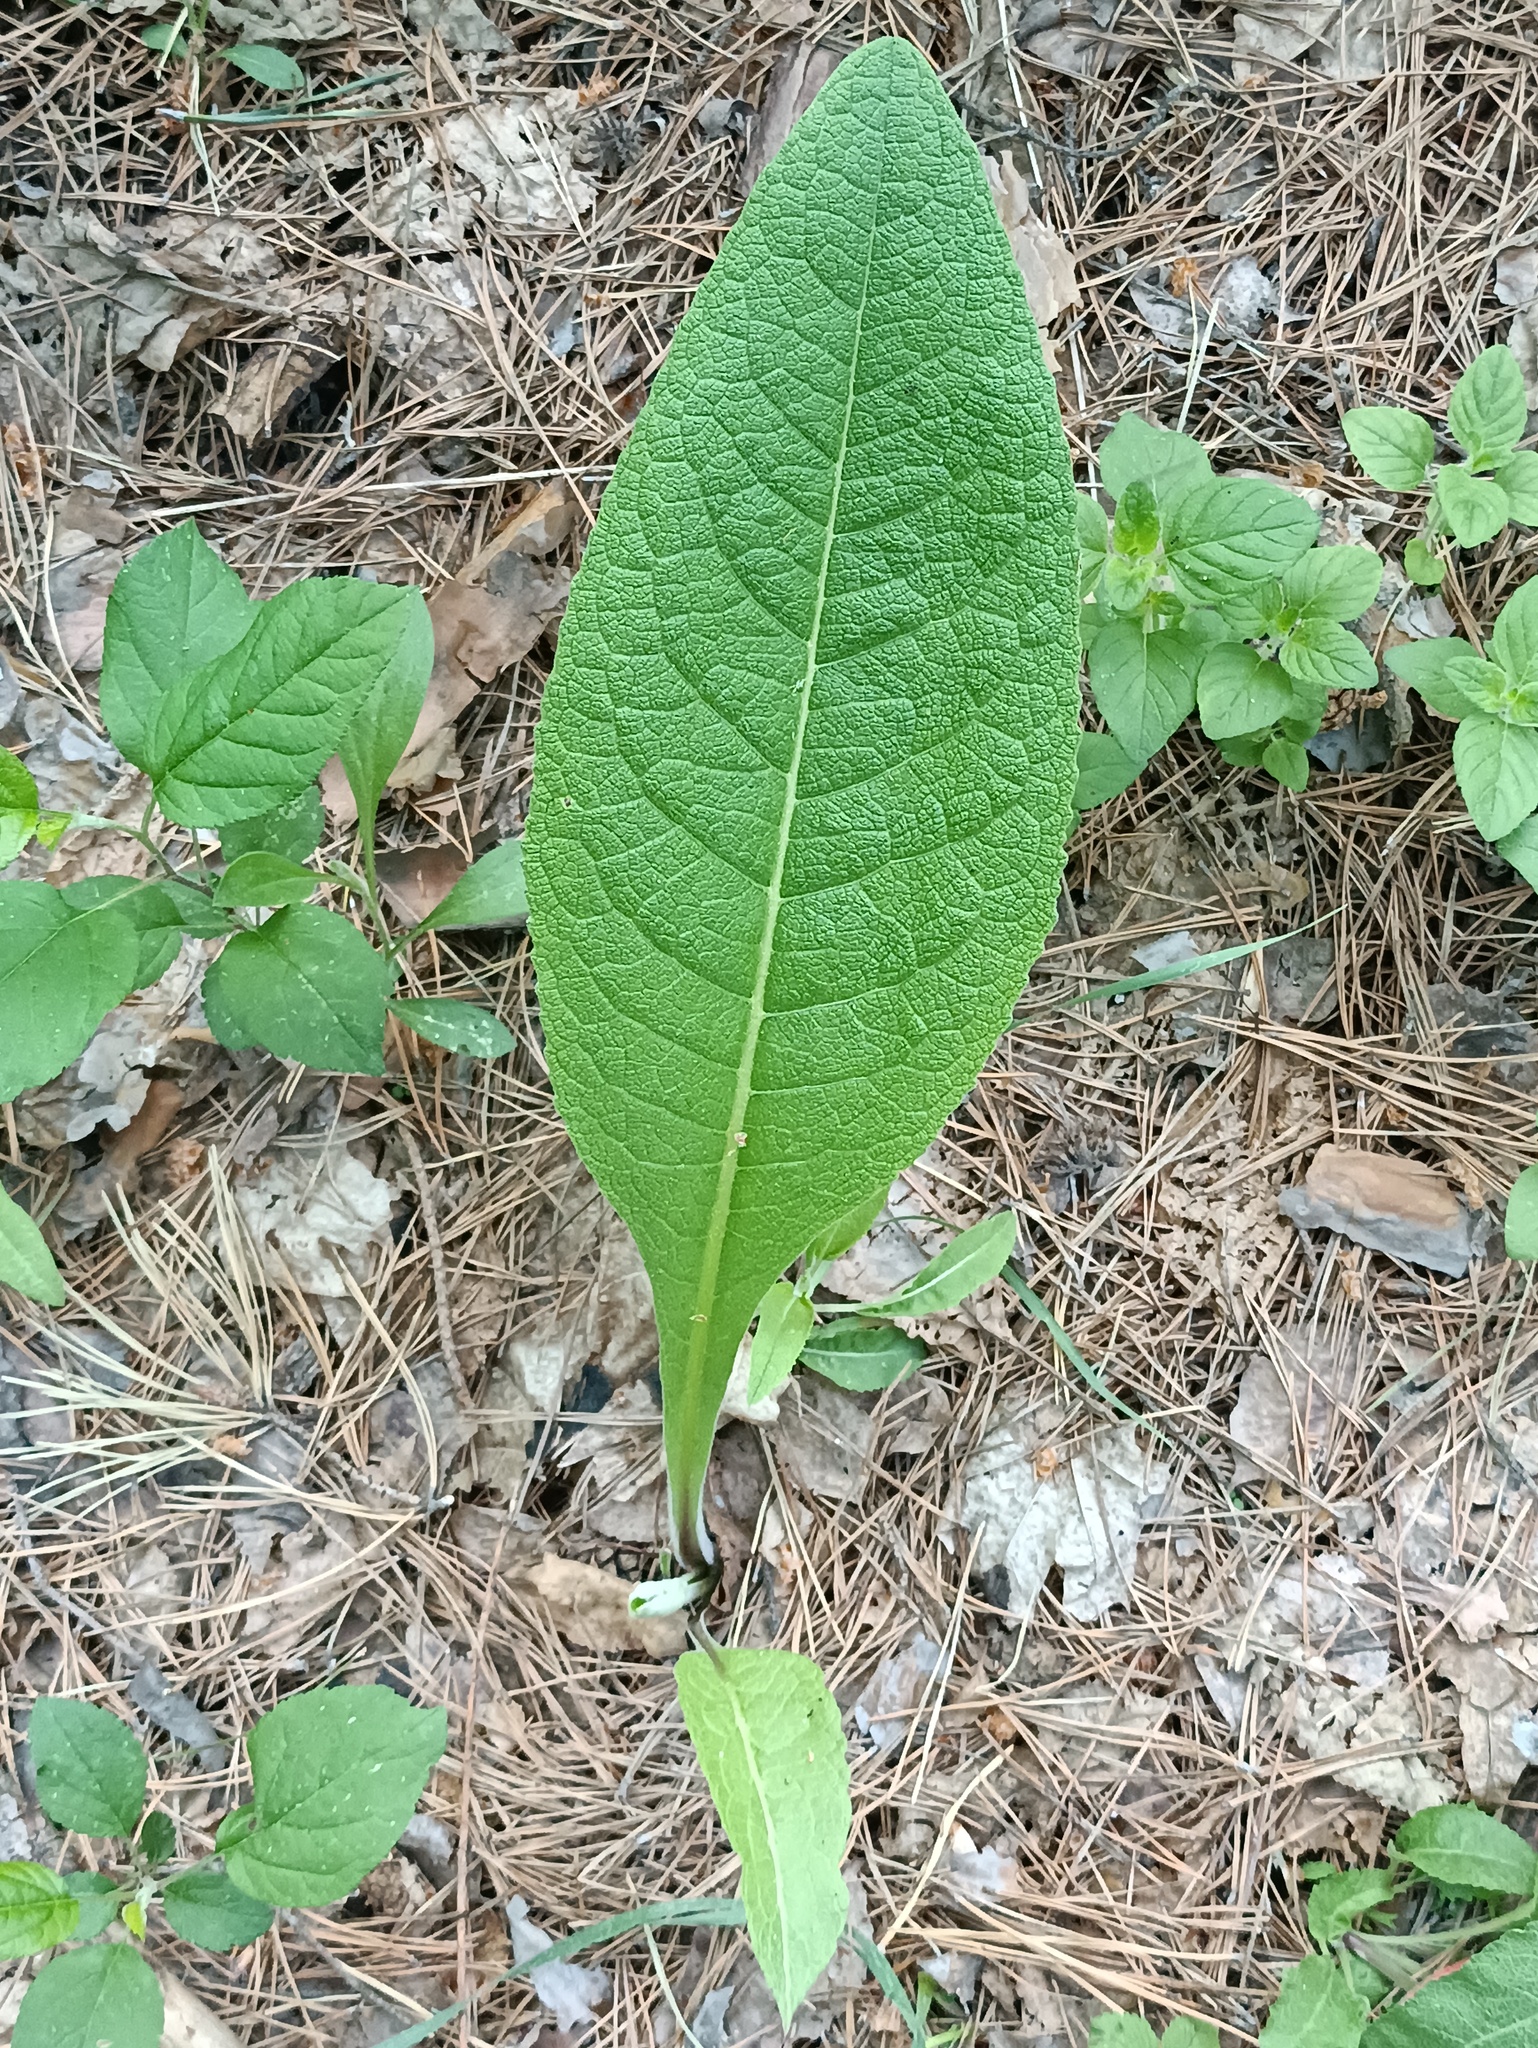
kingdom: Plantae
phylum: Tracheophyta
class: Magnoliopsida
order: Asterales
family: Asteraceae
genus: Inula
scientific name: Inula helenium
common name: Elecampane
